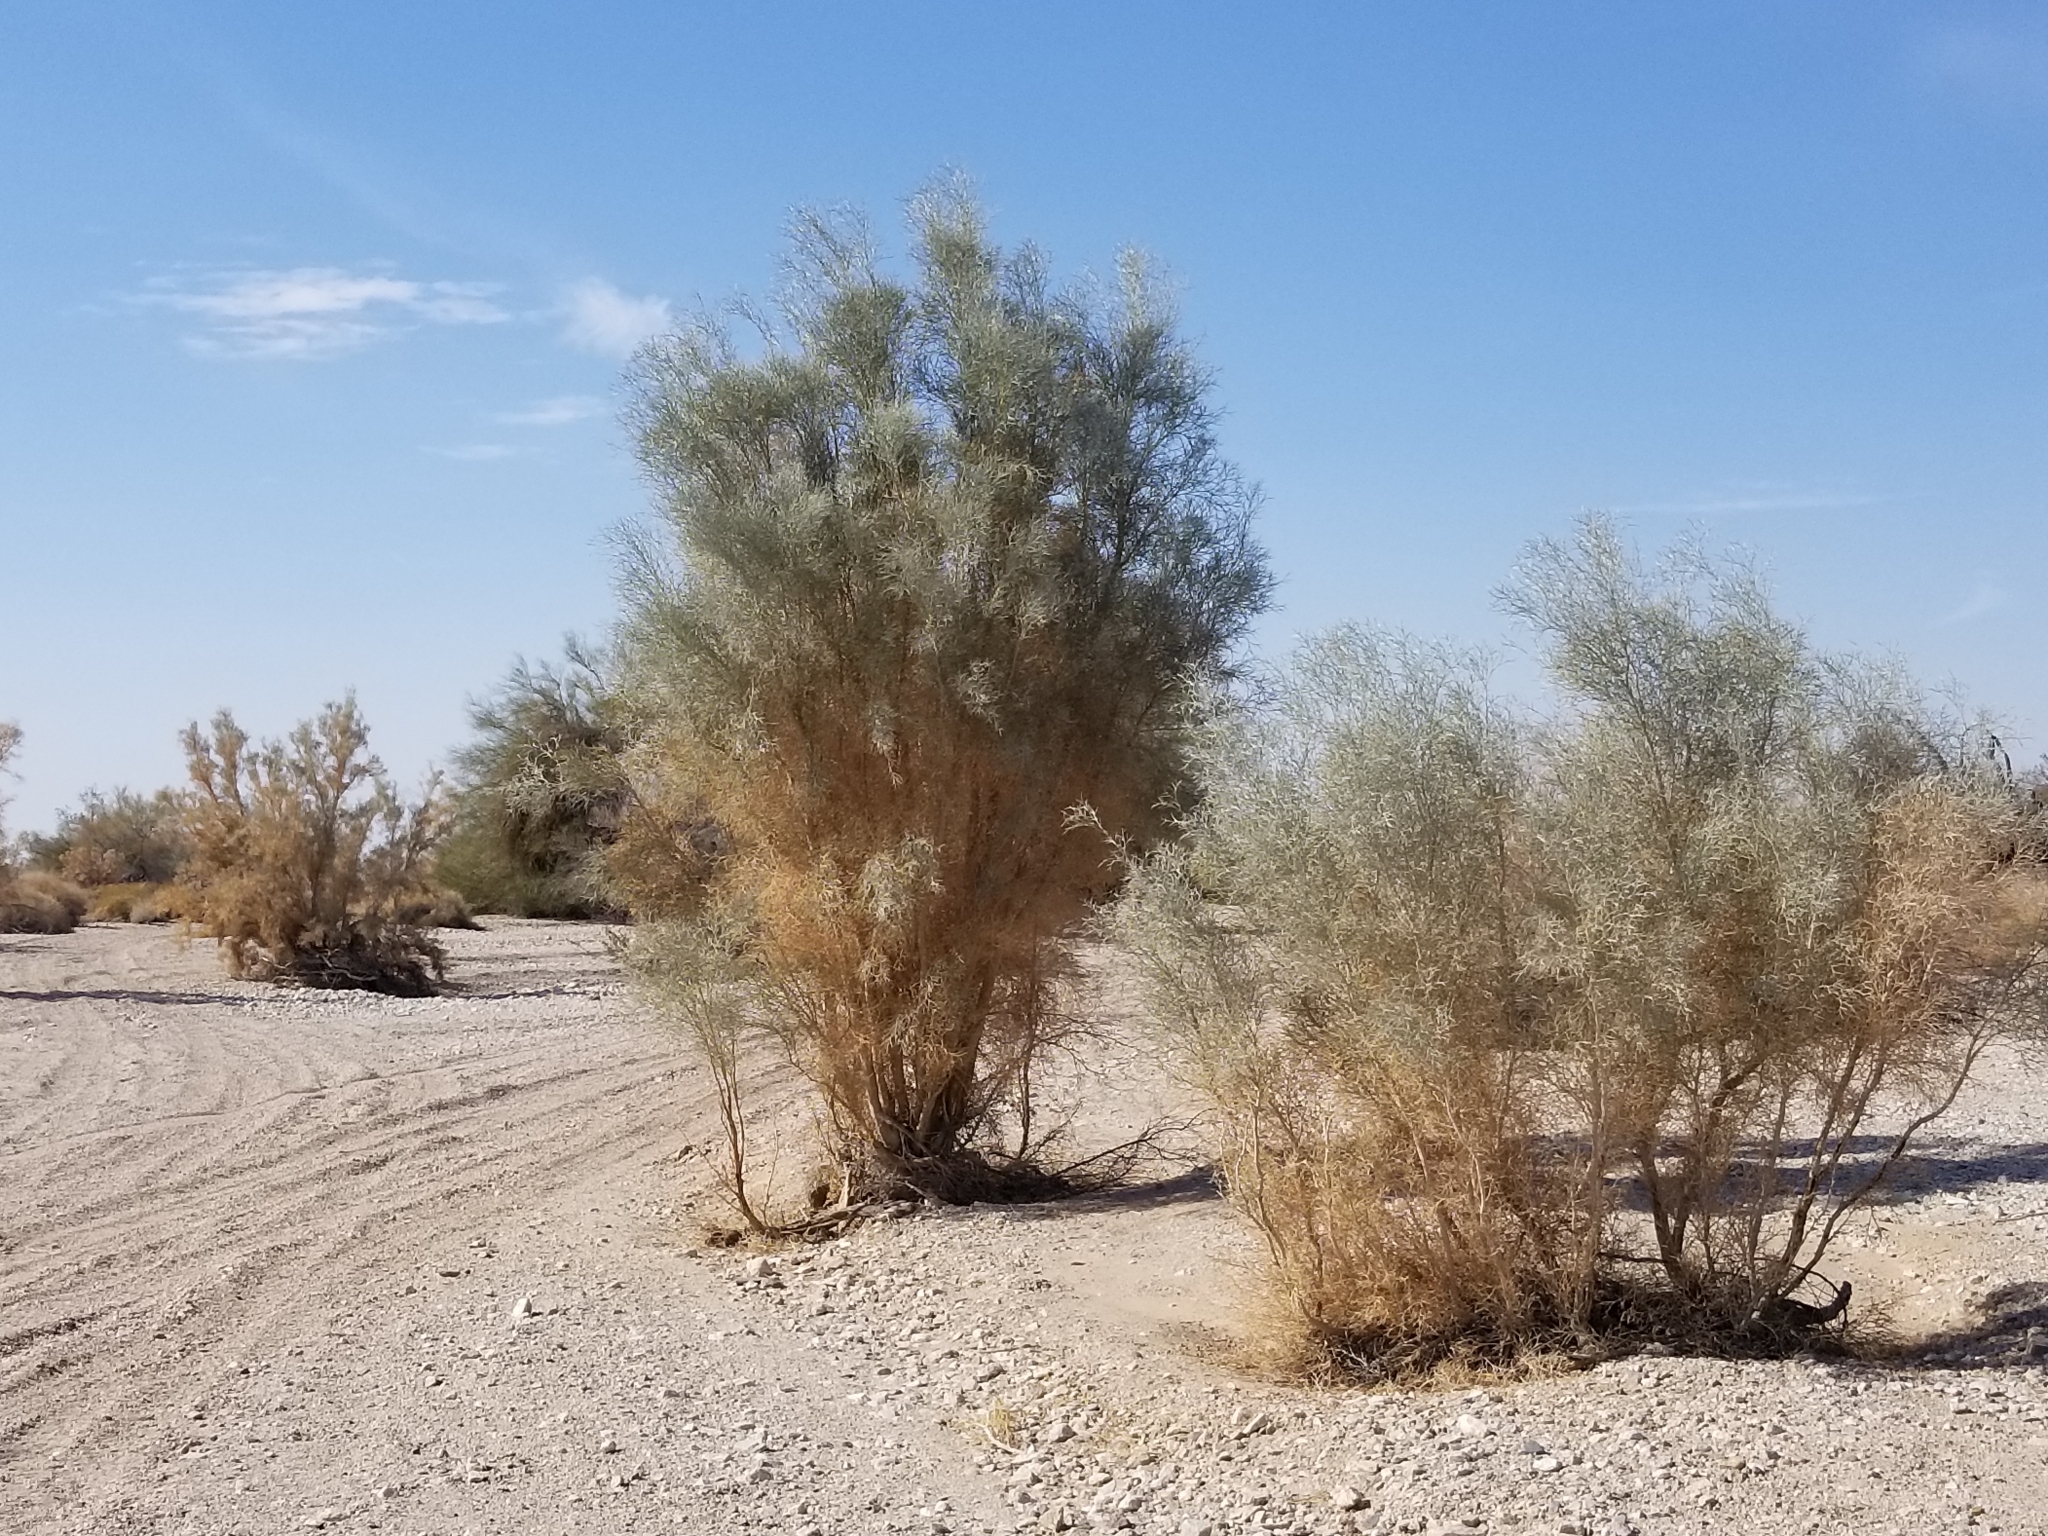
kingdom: Plantae
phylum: Tracheophyta
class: Magnoliopsida
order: Fabales
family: Fabaceae
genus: Psorothamnus
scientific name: Psorothamnus spinosus
